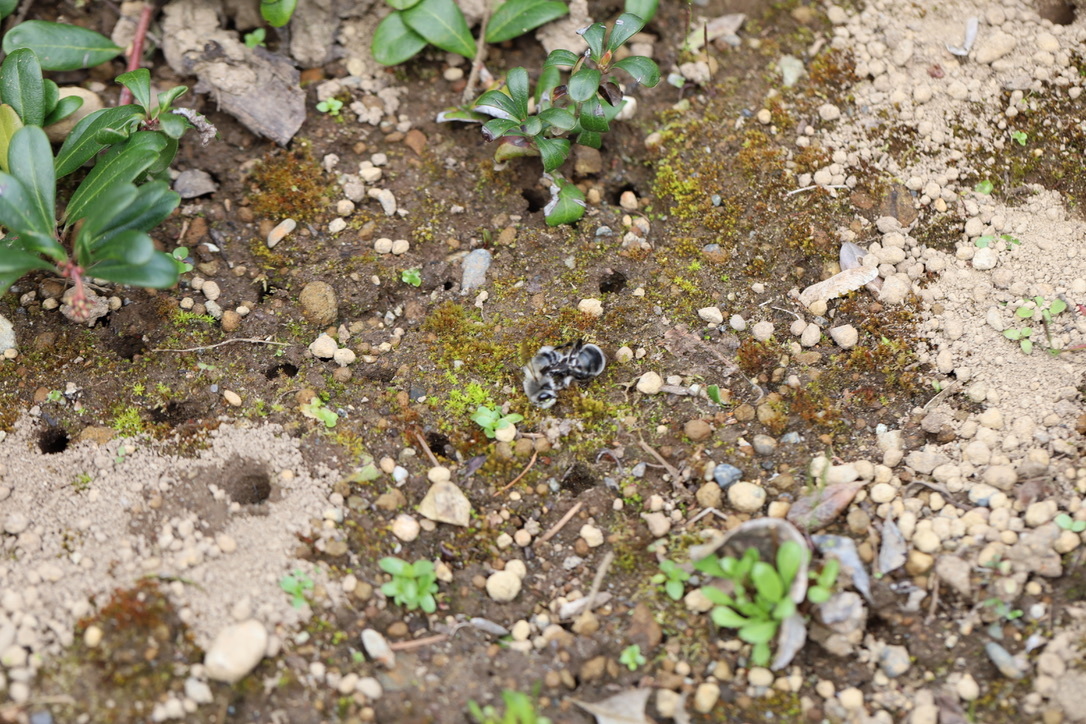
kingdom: Animalia
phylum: Arthropoda
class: Insecta
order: Hymenoptera
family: Apidae
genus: Anthophora
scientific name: Anthophora pacifica
